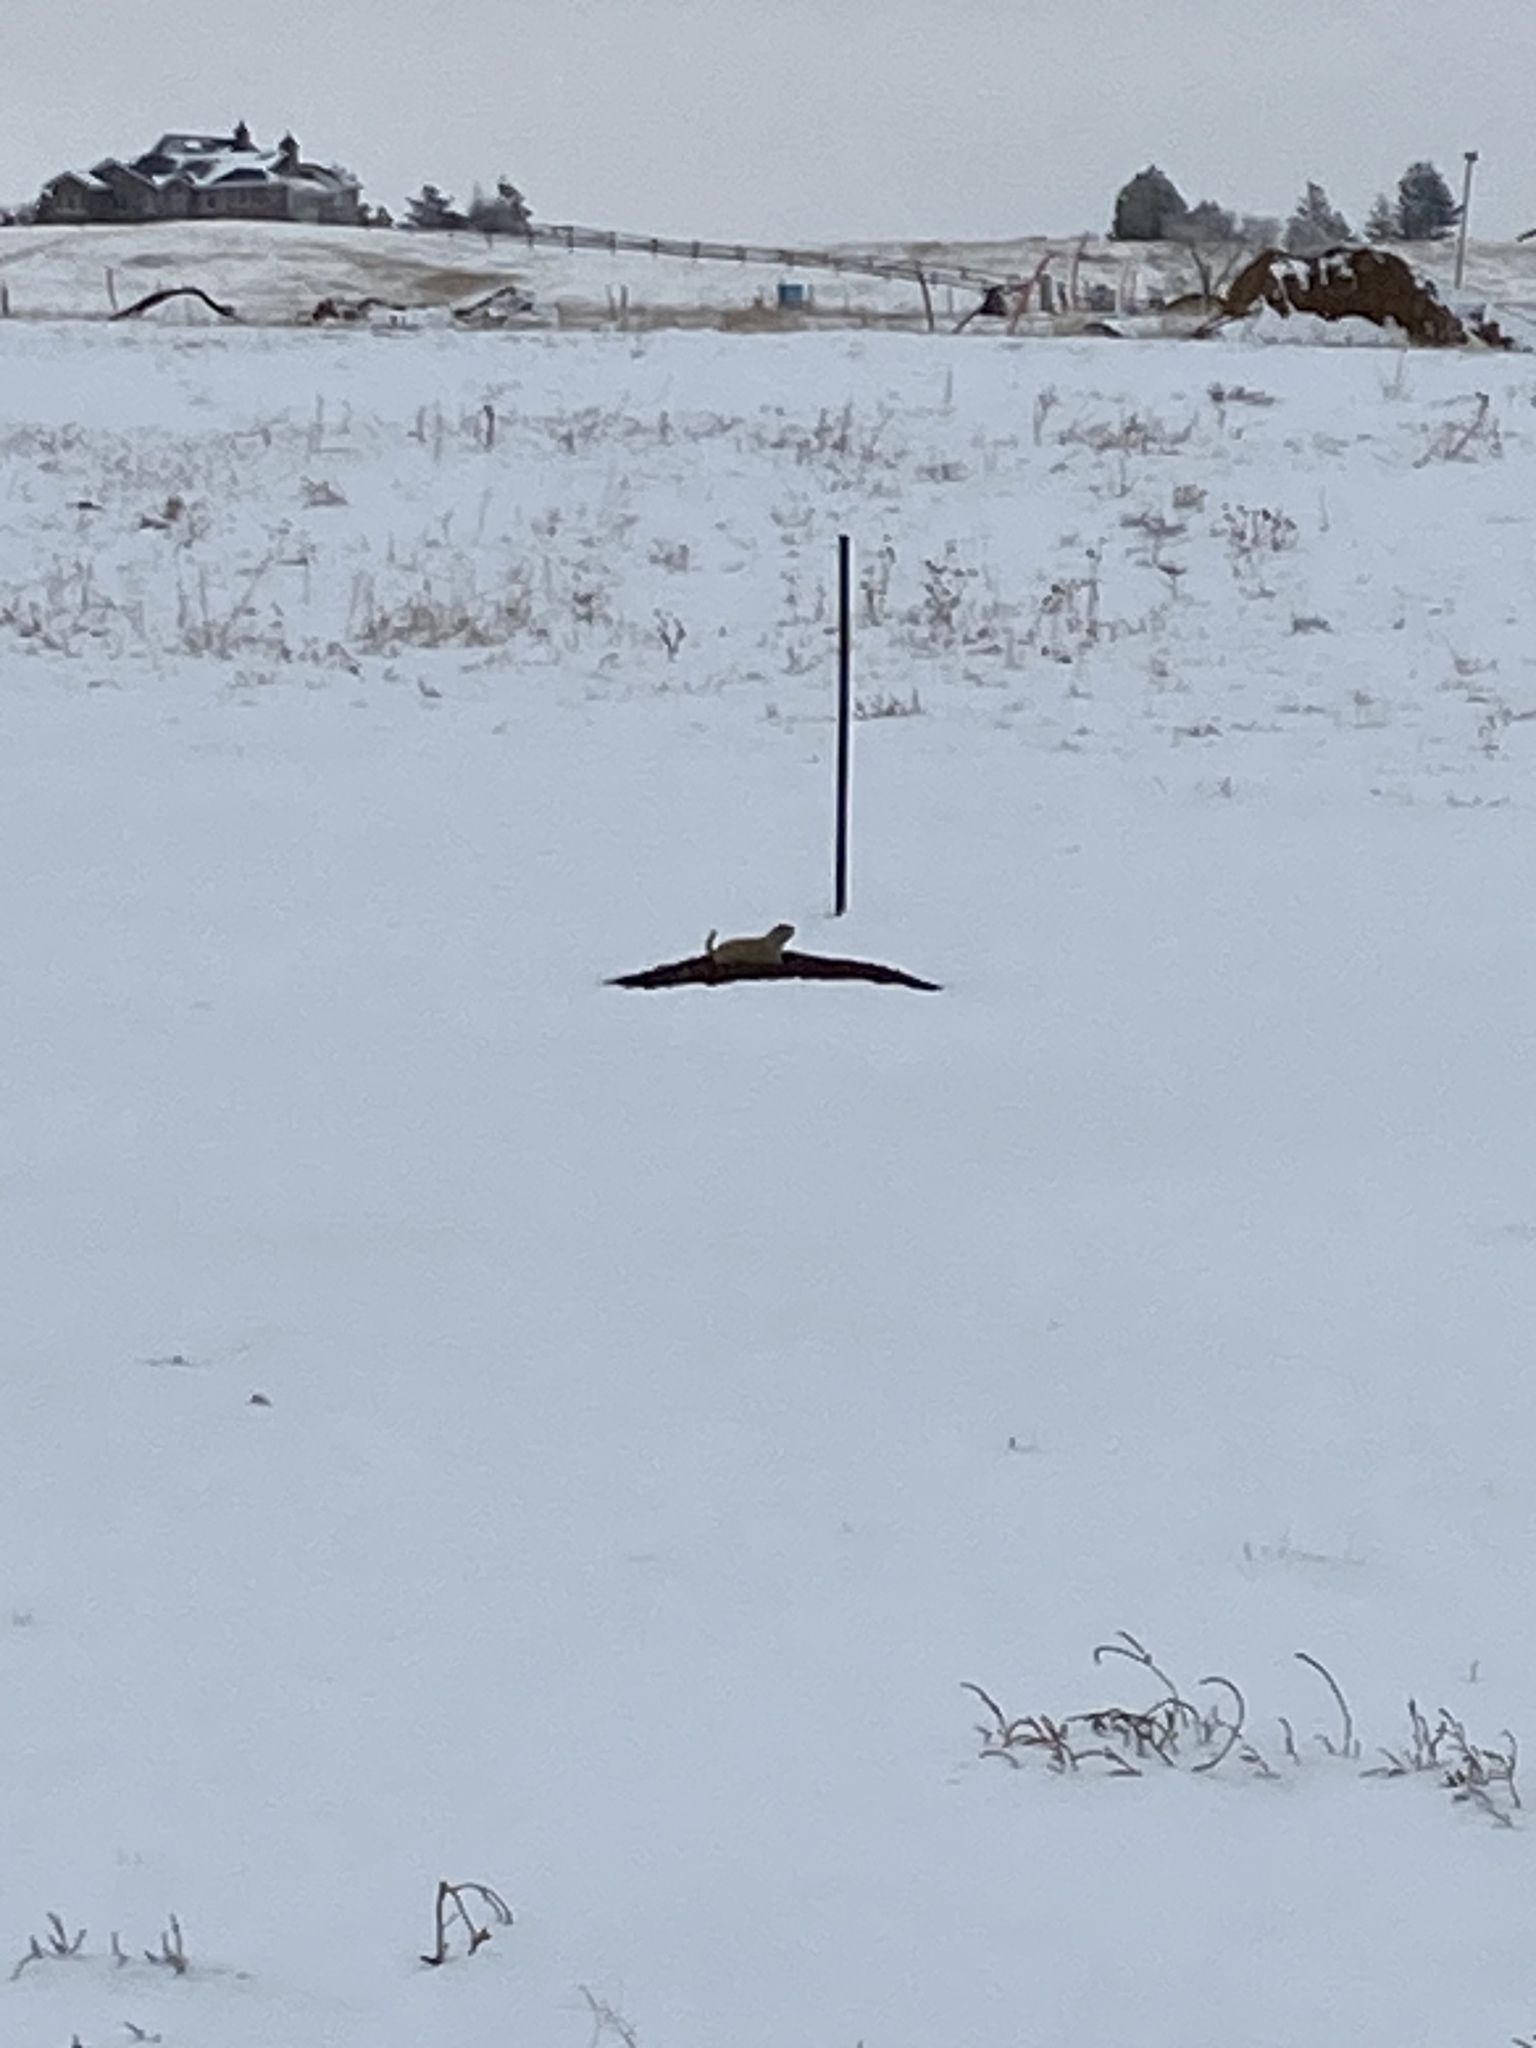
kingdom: Animalia
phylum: Chordata
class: Mammalia
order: Rodentia
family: Sciuridae
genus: Cynomys
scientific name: Cynomys ludovicianus
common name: Black-tailed prairie dog
